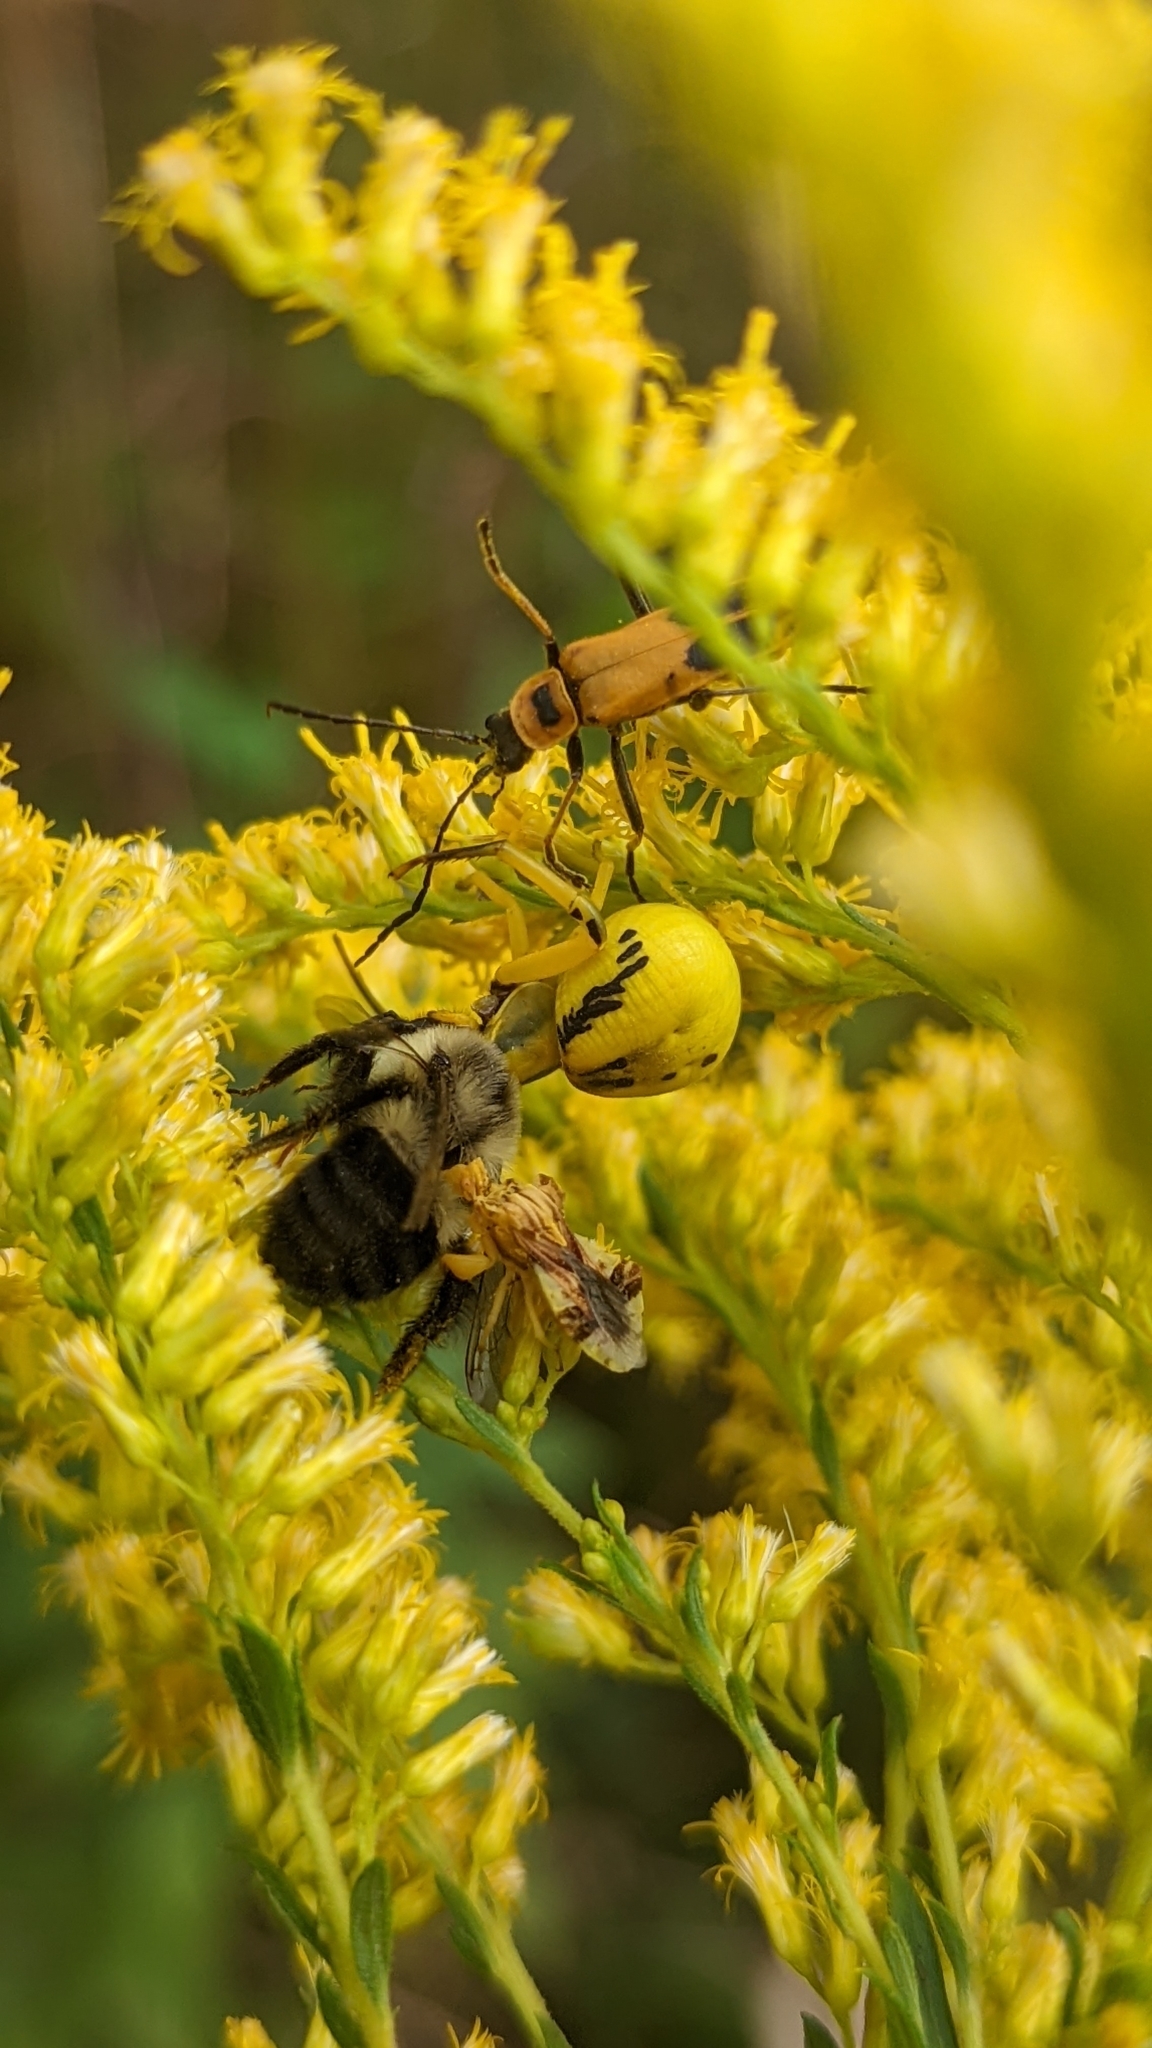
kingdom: Animalia
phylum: Arthropoda
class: Insecta
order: Coleoptera
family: Cantharidae
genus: Chauliognathus
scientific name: Chauliognathus pensylvanicus
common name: Goldenrod soldier beetle
